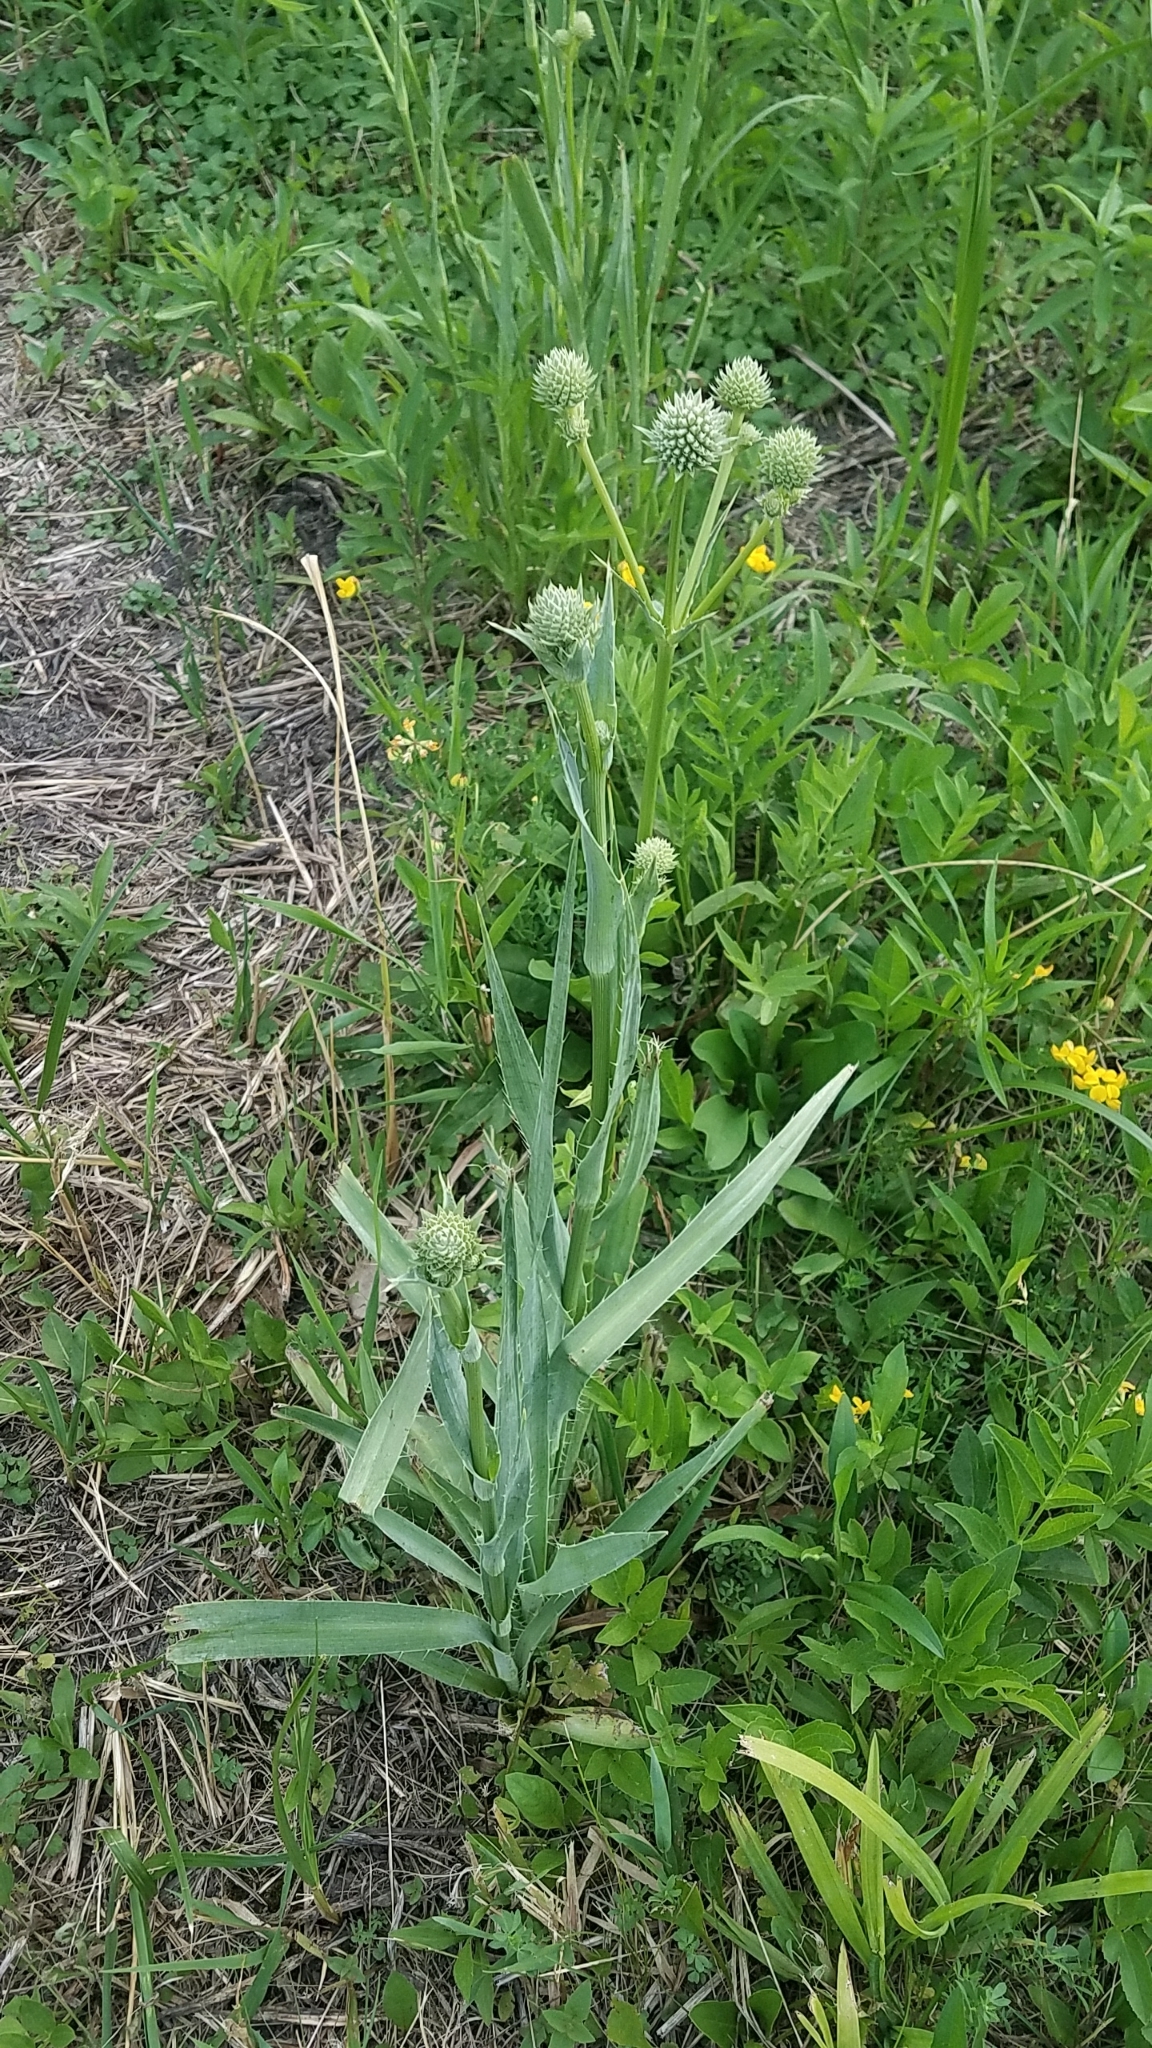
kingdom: Plantae
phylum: Tracheophyta
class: Magnoliopsida
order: Apiales
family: Apiaceae
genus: Eryngium
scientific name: Eryngium yuccifolium
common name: Button eryngo
